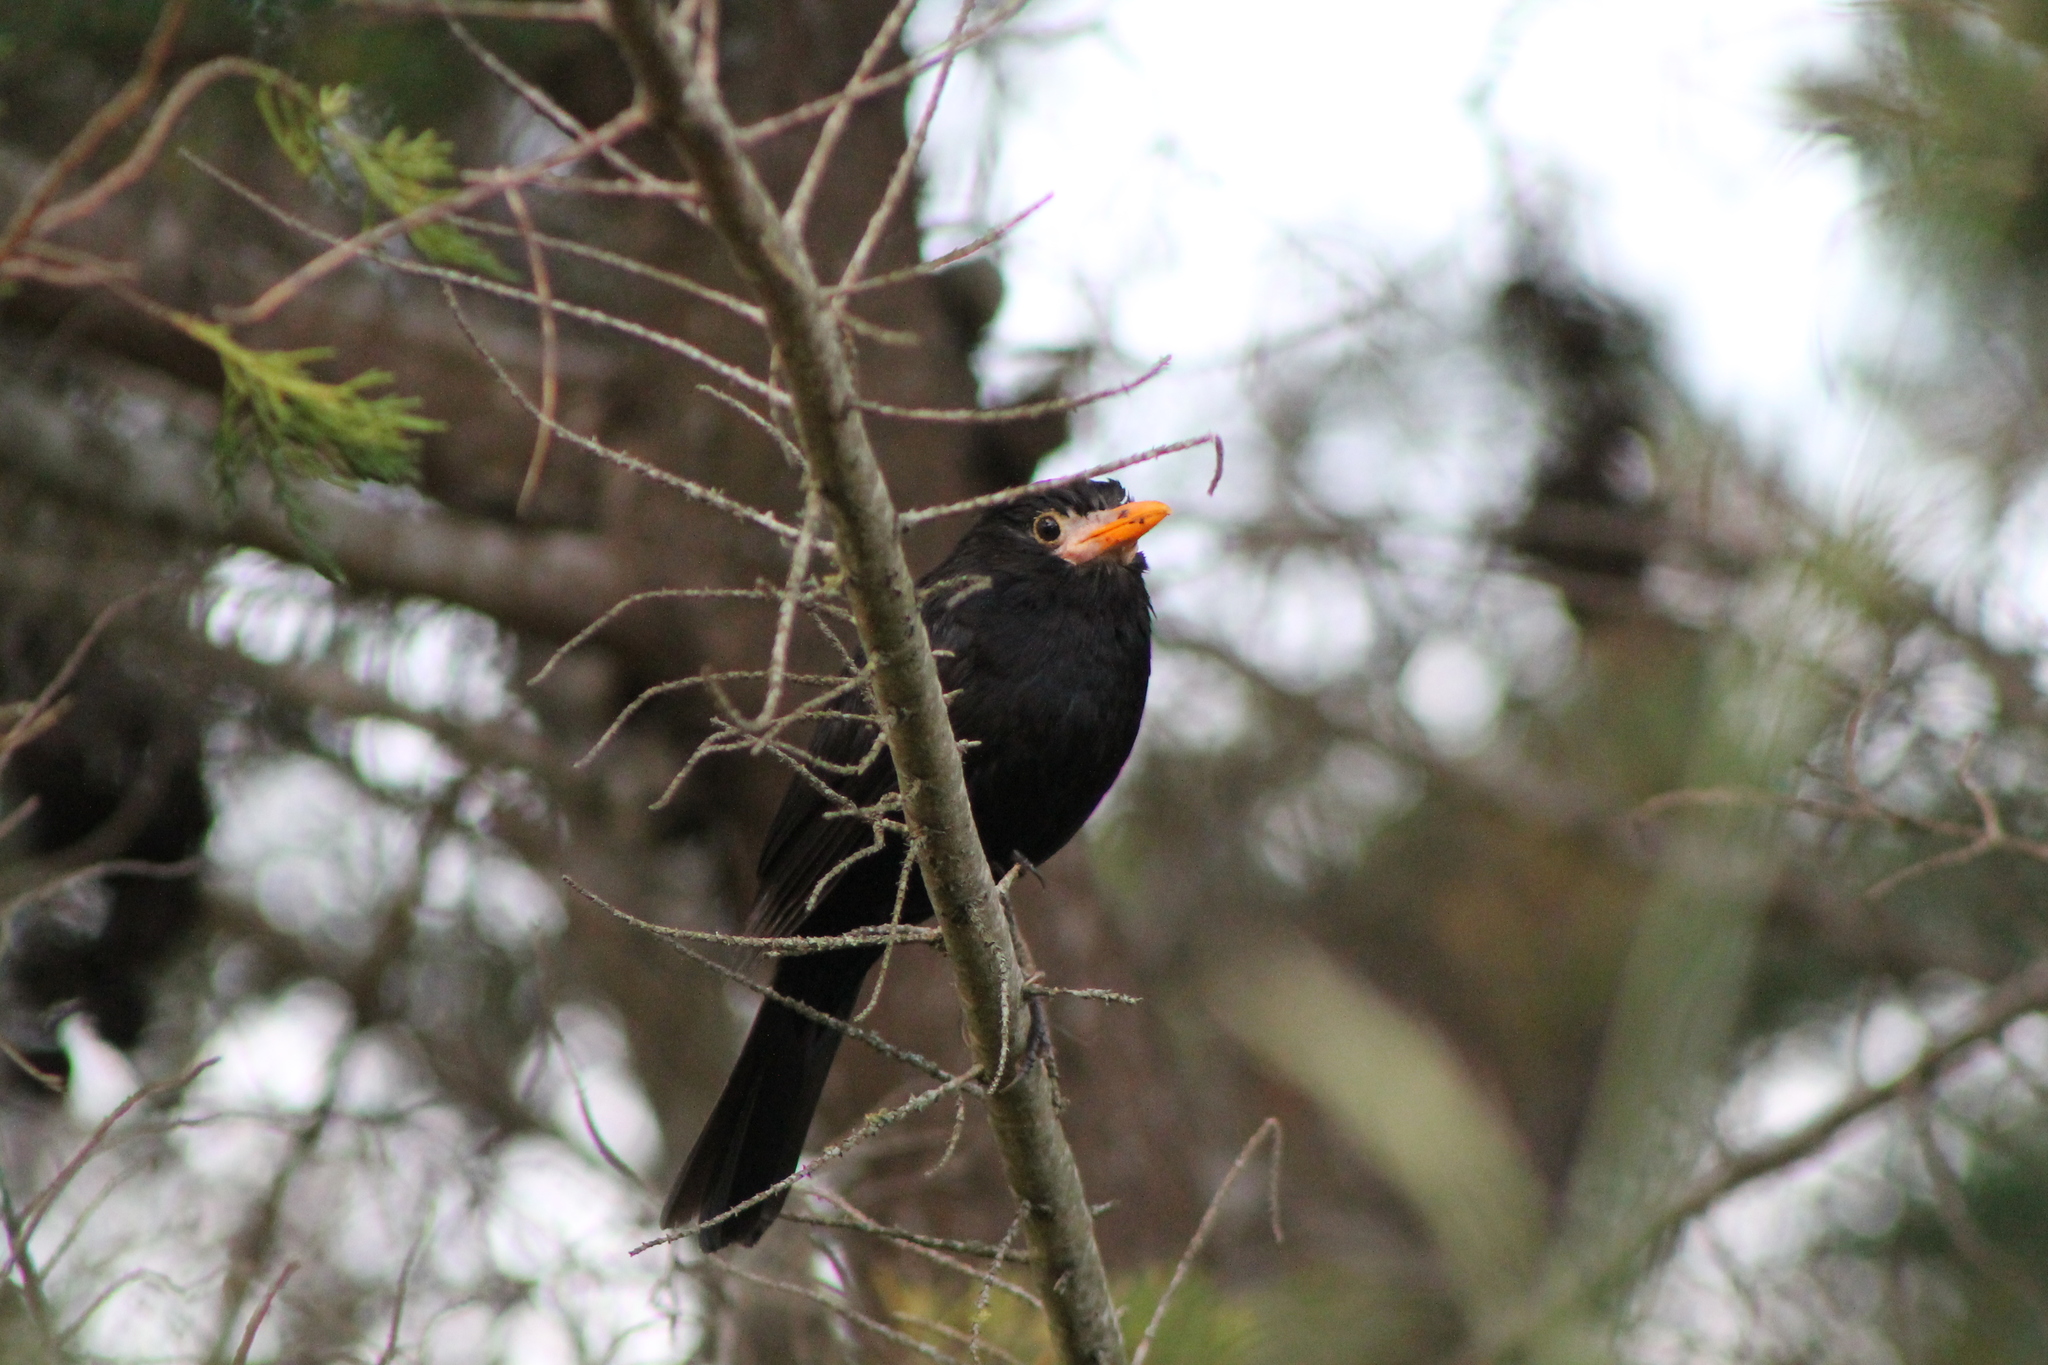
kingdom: Animalia
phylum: Chordata
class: Aves
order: Passeriformes
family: Turdidae
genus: Turdus
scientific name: Turdus merula
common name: Common blackbird
